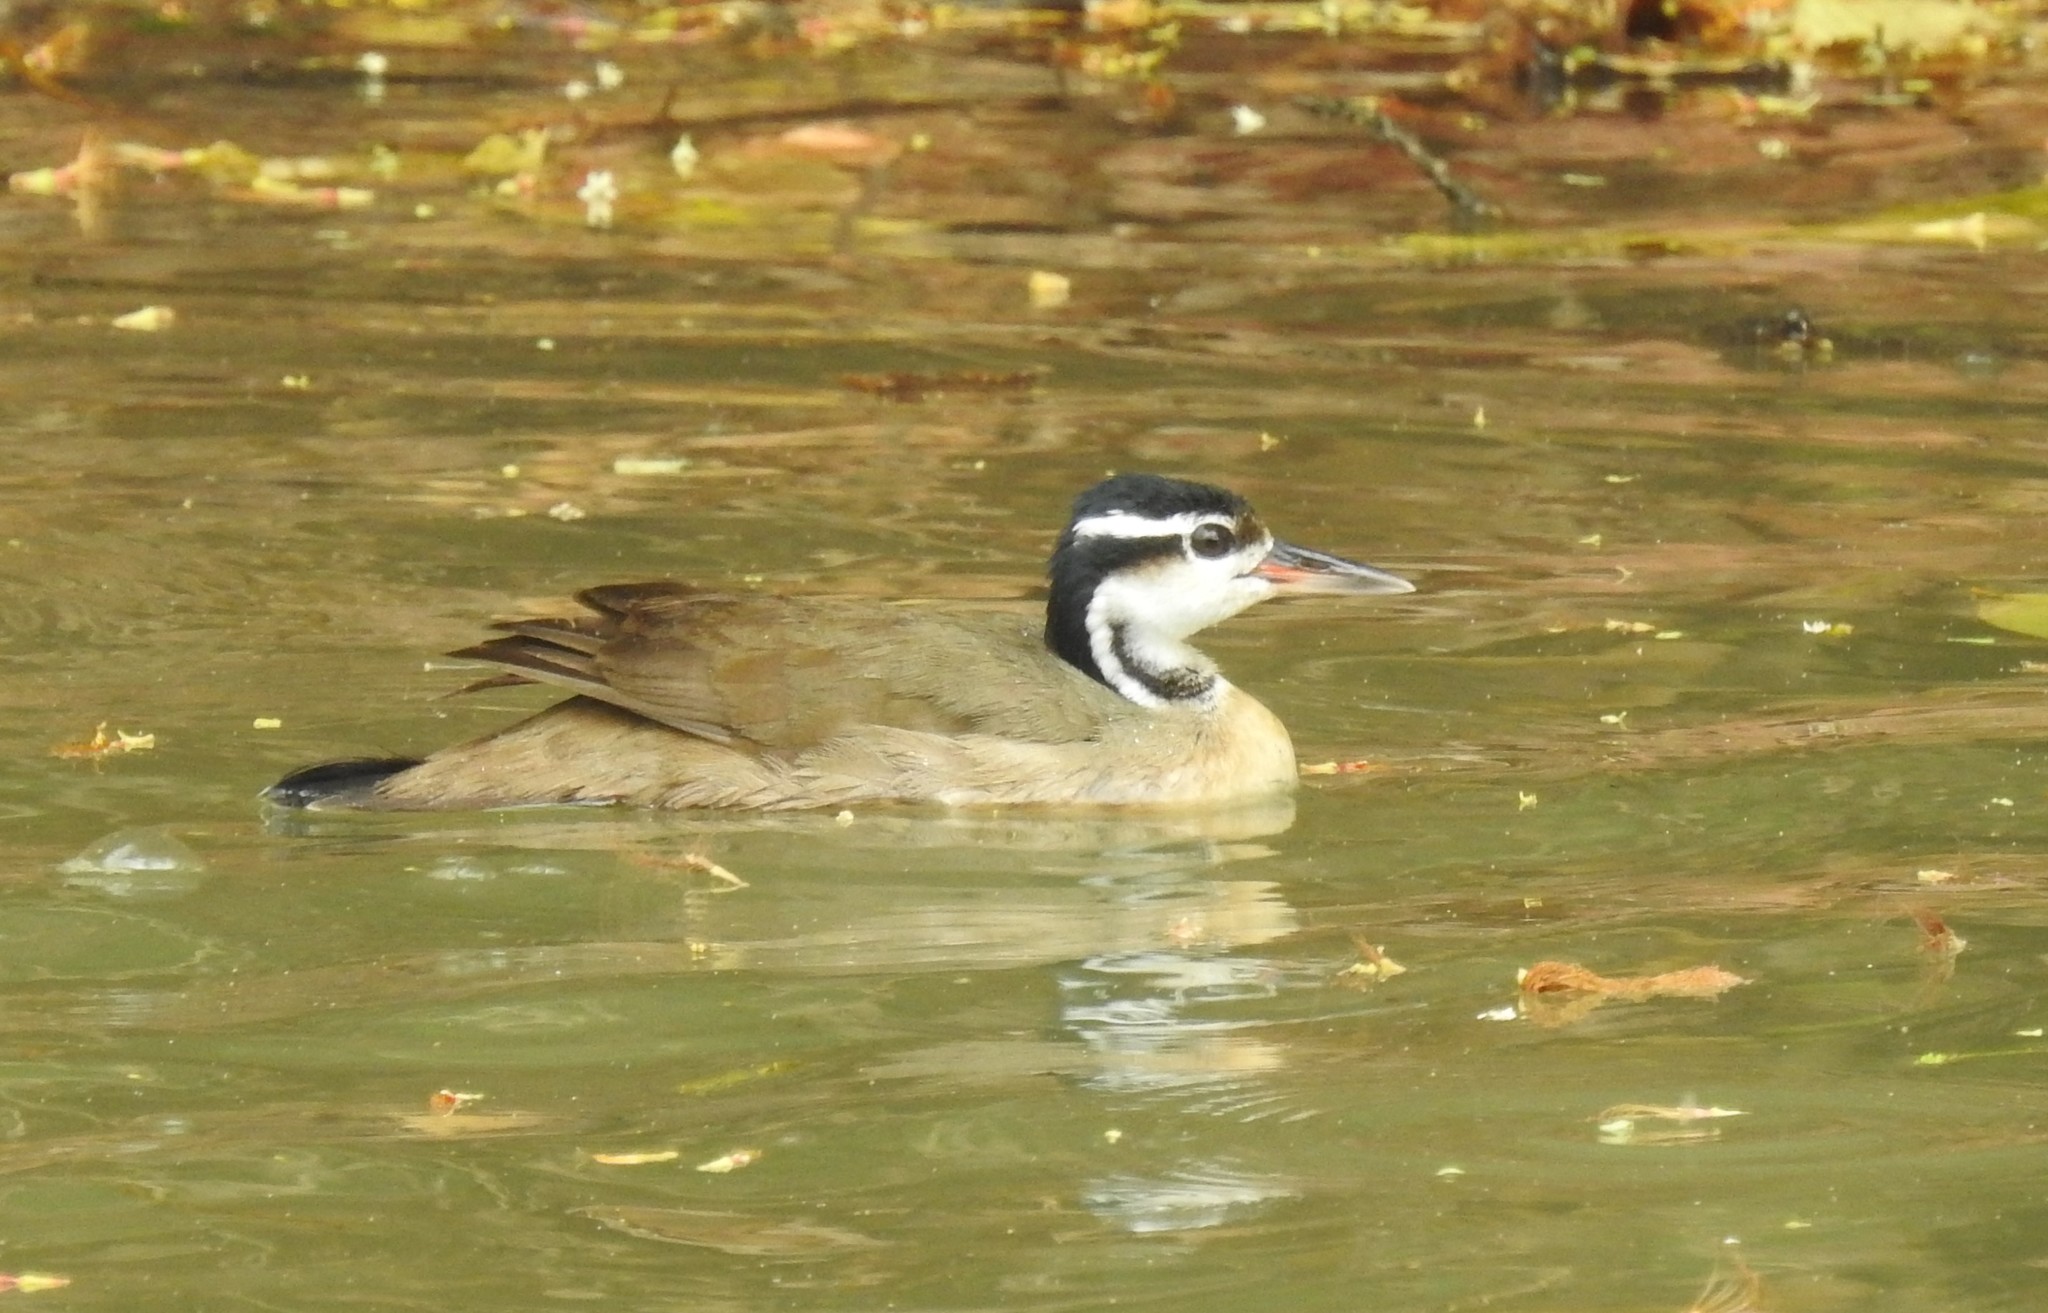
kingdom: Animalia
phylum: Chordata
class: Aves
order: Gruiformes
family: Heliornithidae
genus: Heliornis
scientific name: Heliornis fulica
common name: Sungrebe
